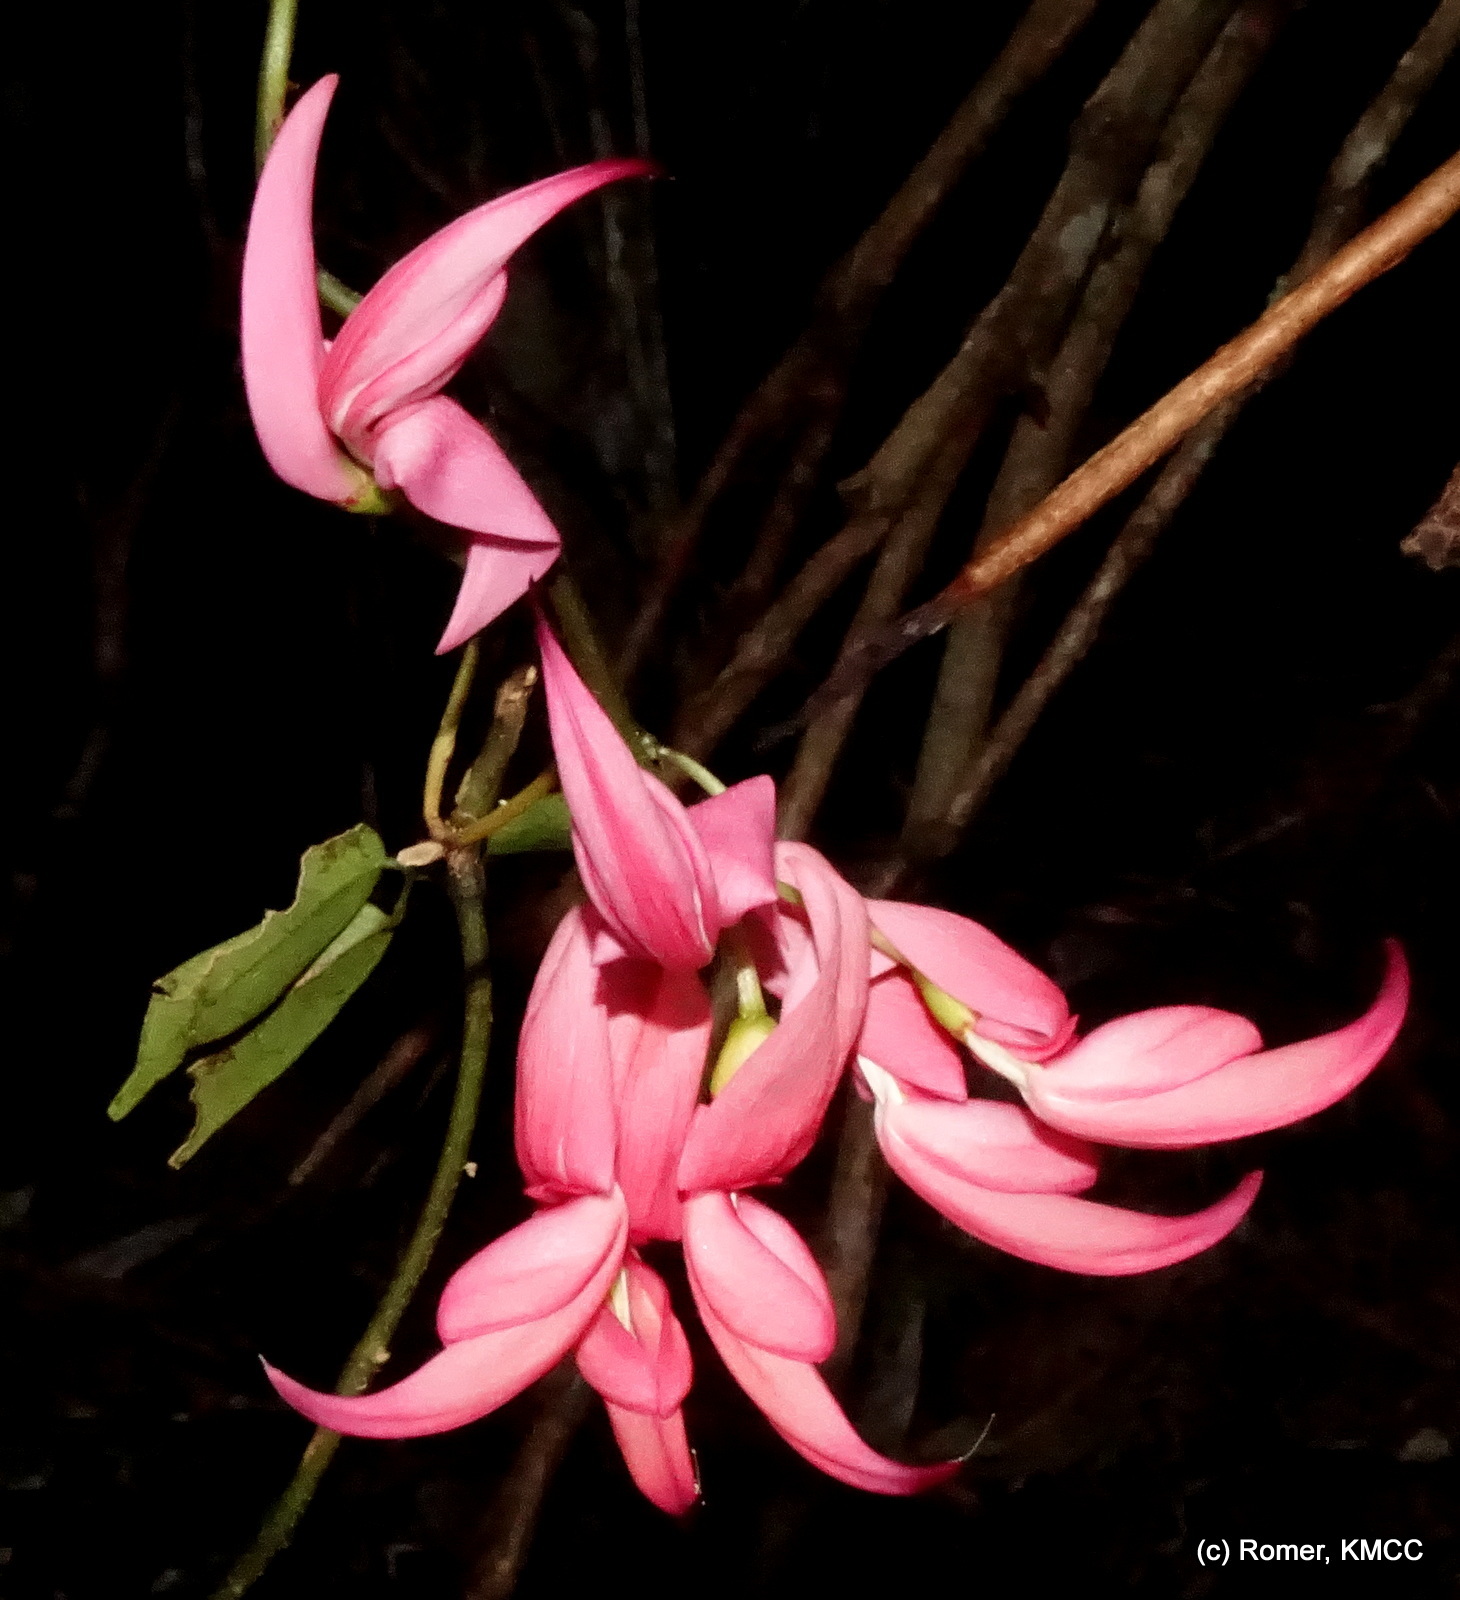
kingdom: Plantae
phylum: Tracheophyta
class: Magnoliopsida
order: Fabales
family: Fabaceae
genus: Strongylodon
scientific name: Strongylodon madagascariensis
